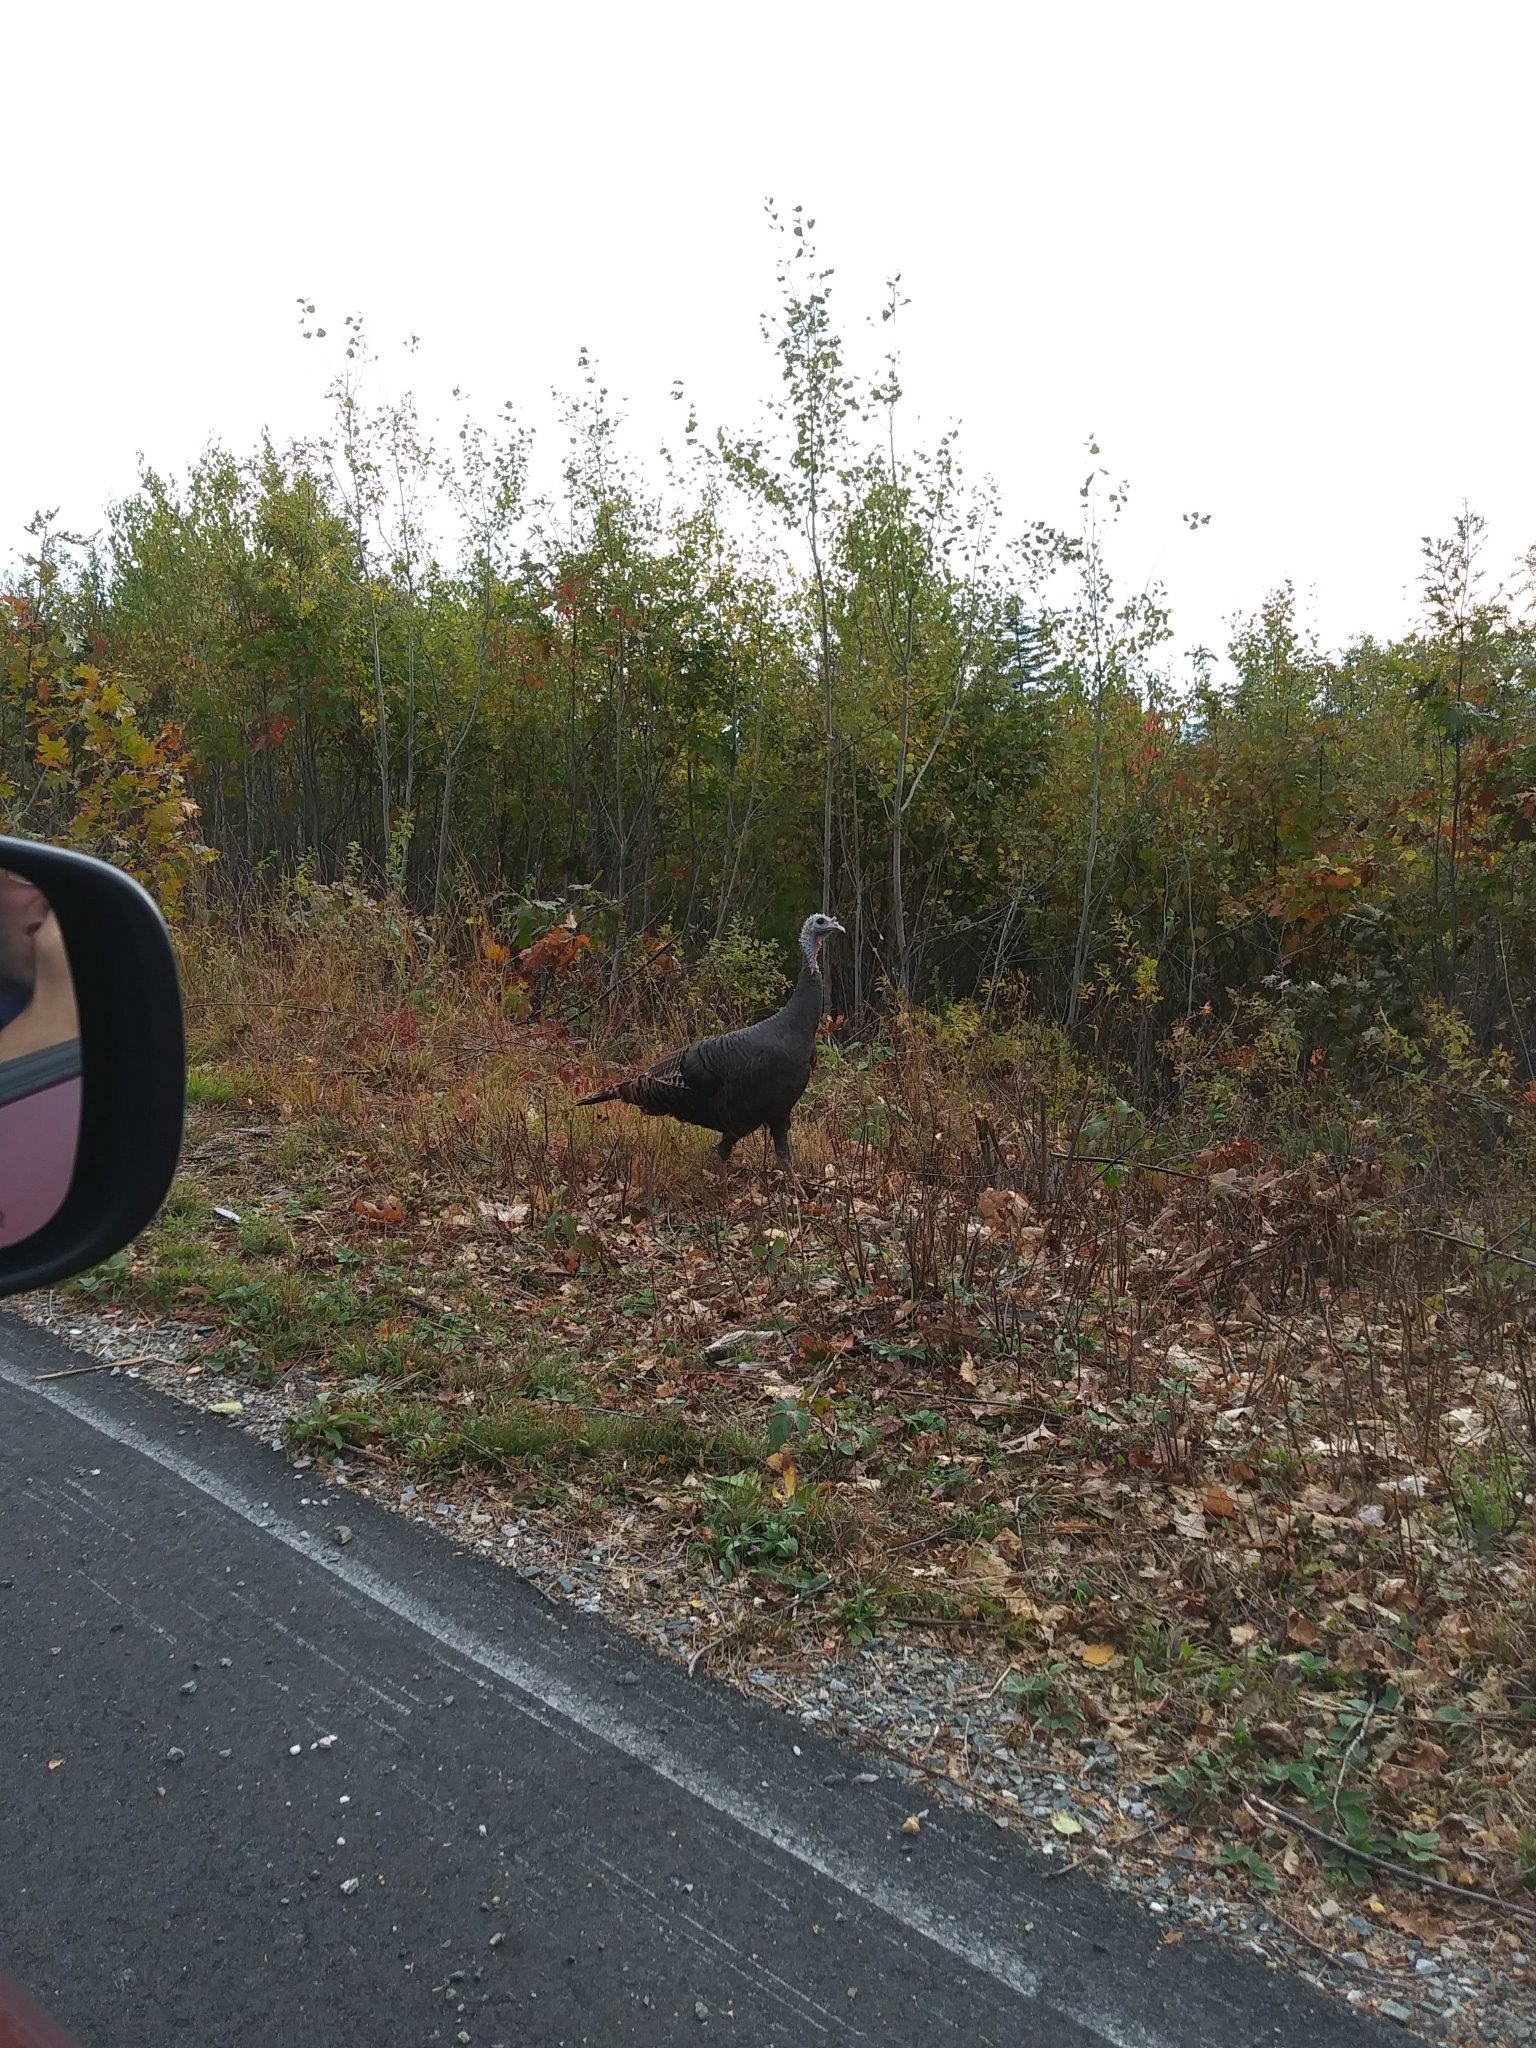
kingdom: Animalia
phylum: Chordata
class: Aves
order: Galliformes
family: Phasianidae
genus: Meleagris
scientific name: Meleagris gallopavo
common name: Wild turkey
